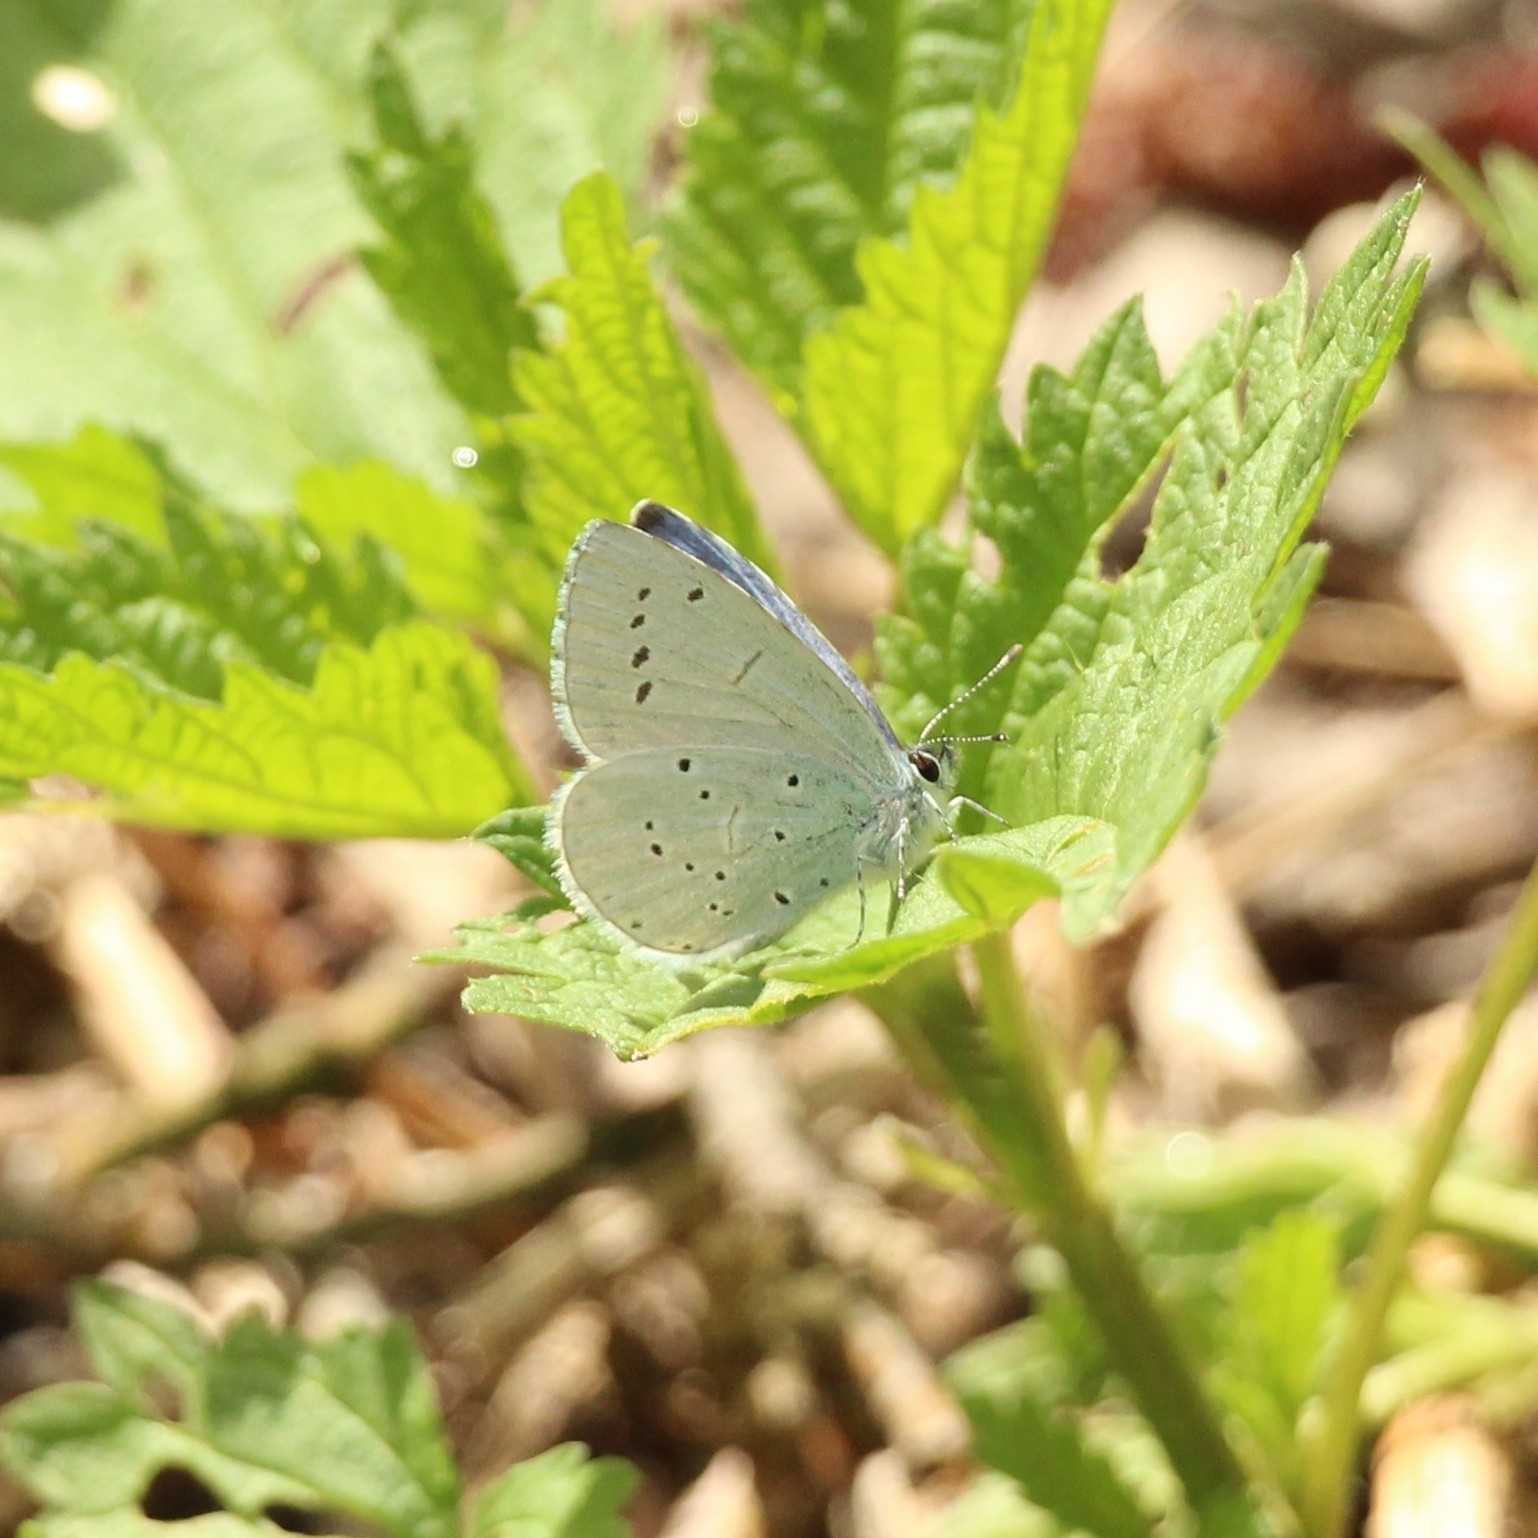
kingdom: Animalia
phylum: Arthropoda
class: Insecta
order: Lepidoptera
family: Lycaenidae
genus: Celastrina
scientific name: Celastrina argiolus
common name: Holly blue
